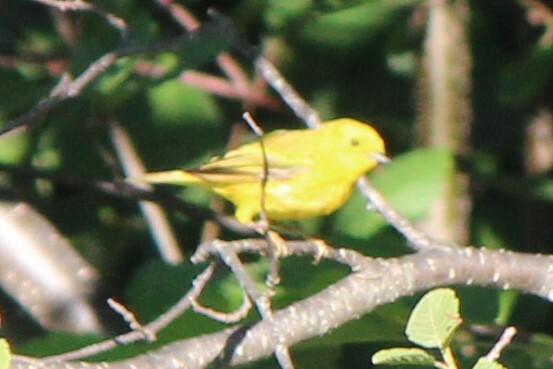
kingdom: Animalia
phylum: Chordata
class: Aves
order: Passeriformes
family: Parulidae
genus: Setophaga
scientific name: Setophaga petechia
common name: Yellow warbler
